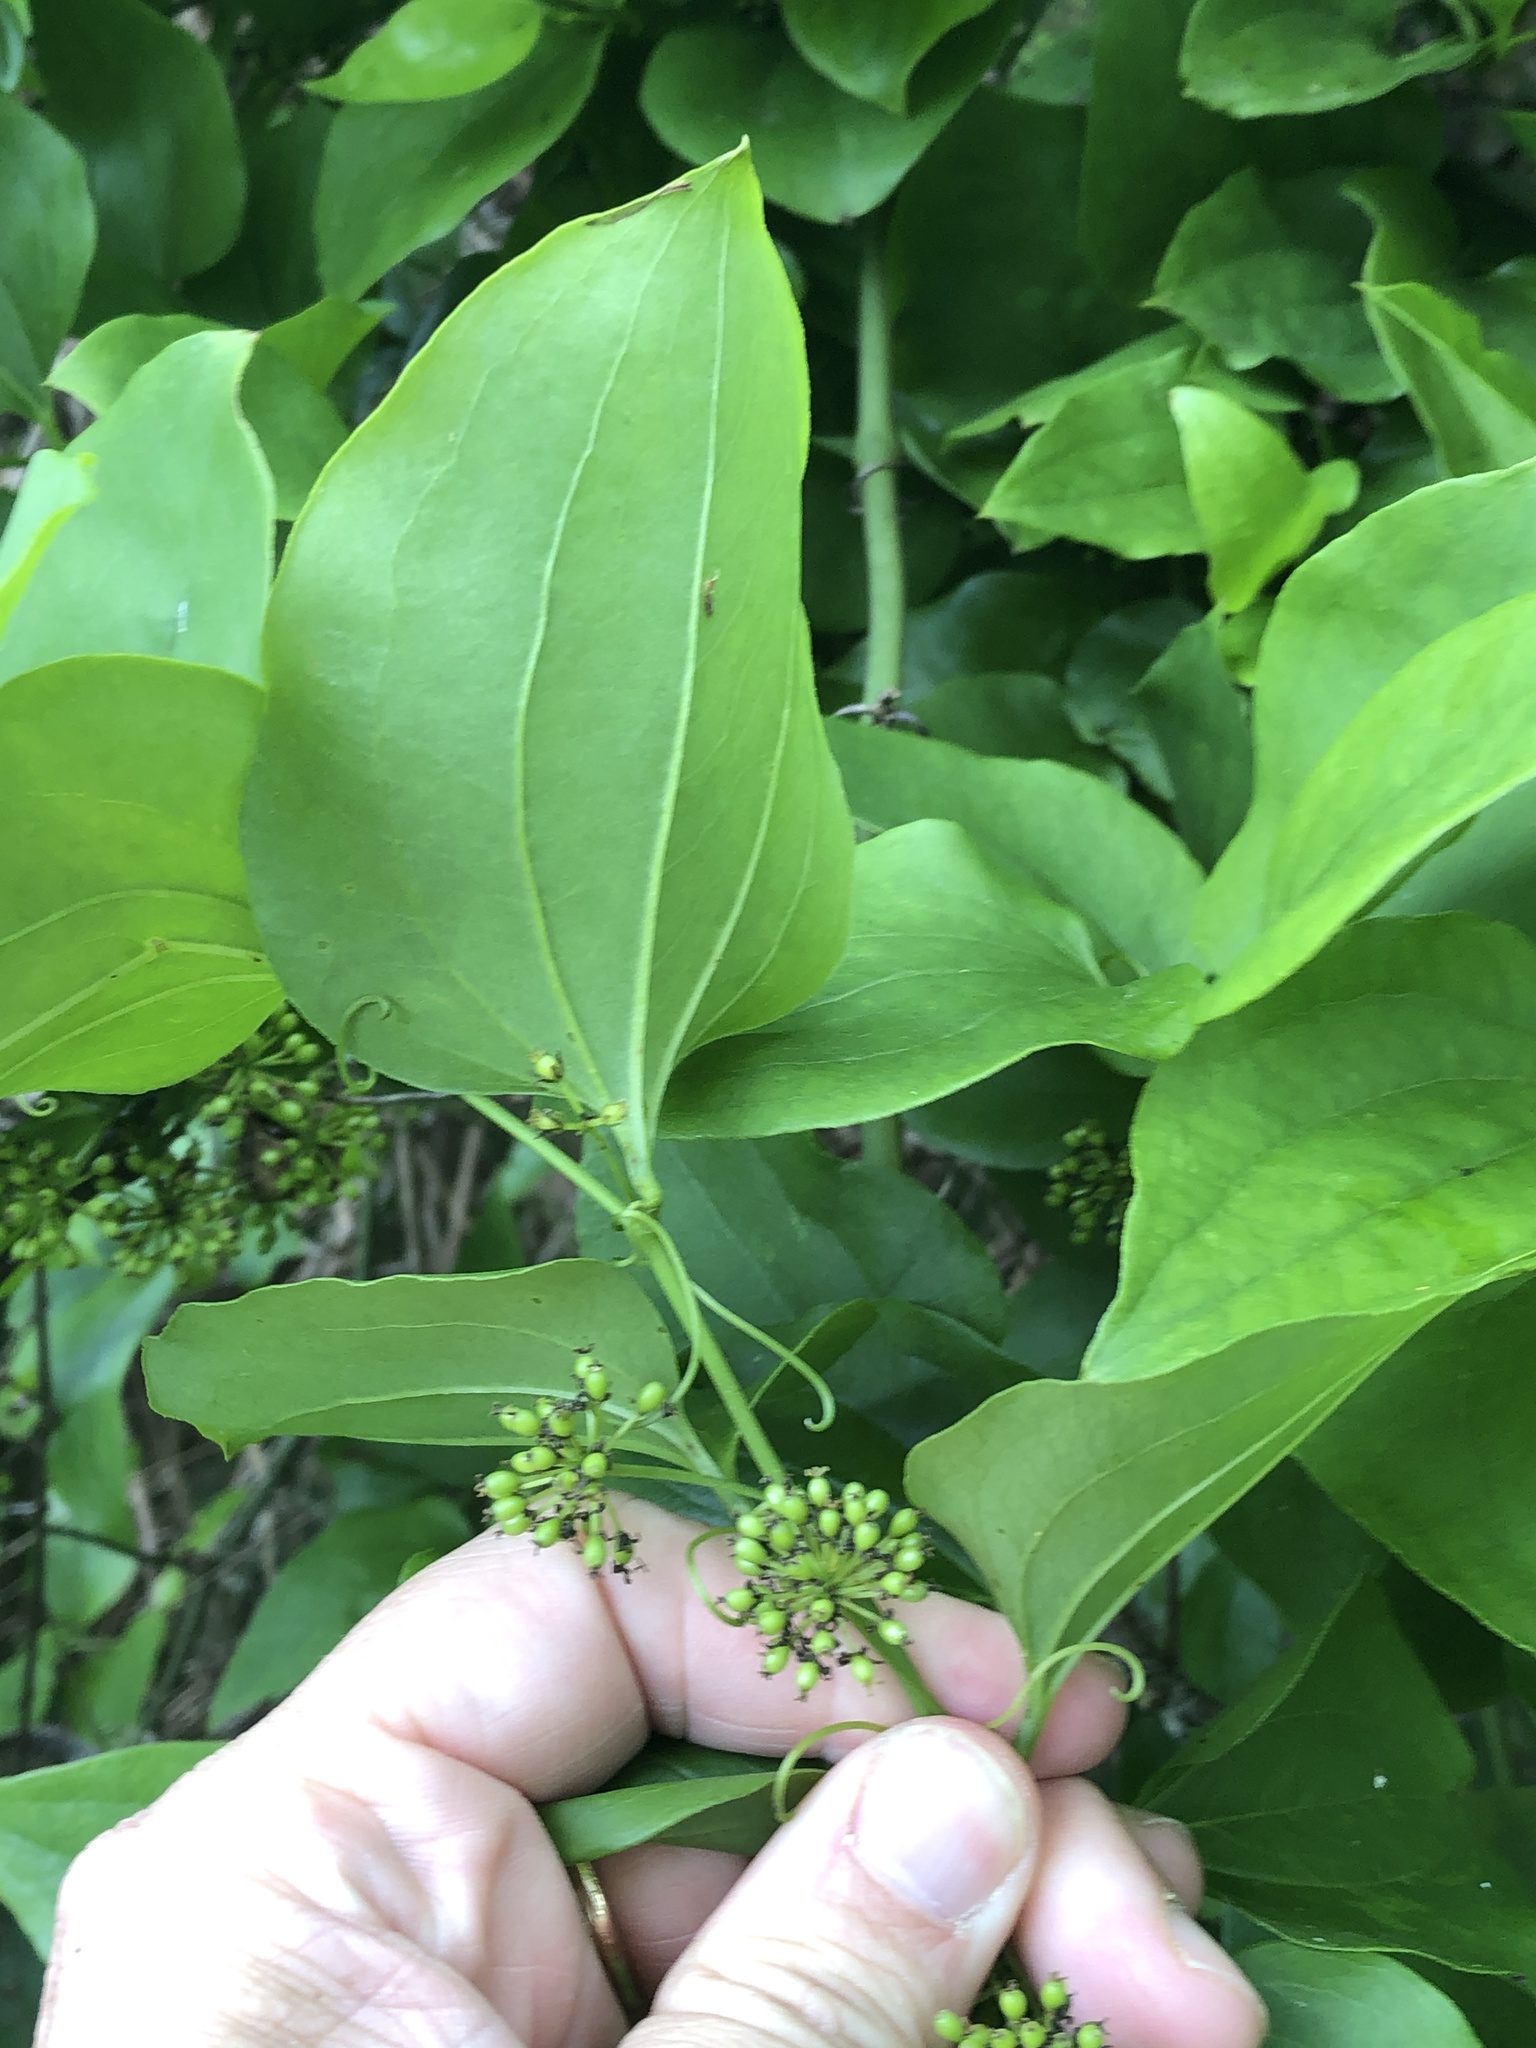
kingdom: Plantae
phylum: Tracheophyta
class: Liliopsida
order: Liliales
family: Smilacaceae
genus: Smilax
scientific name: Smilax rotundifolia
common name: Bullbriar
